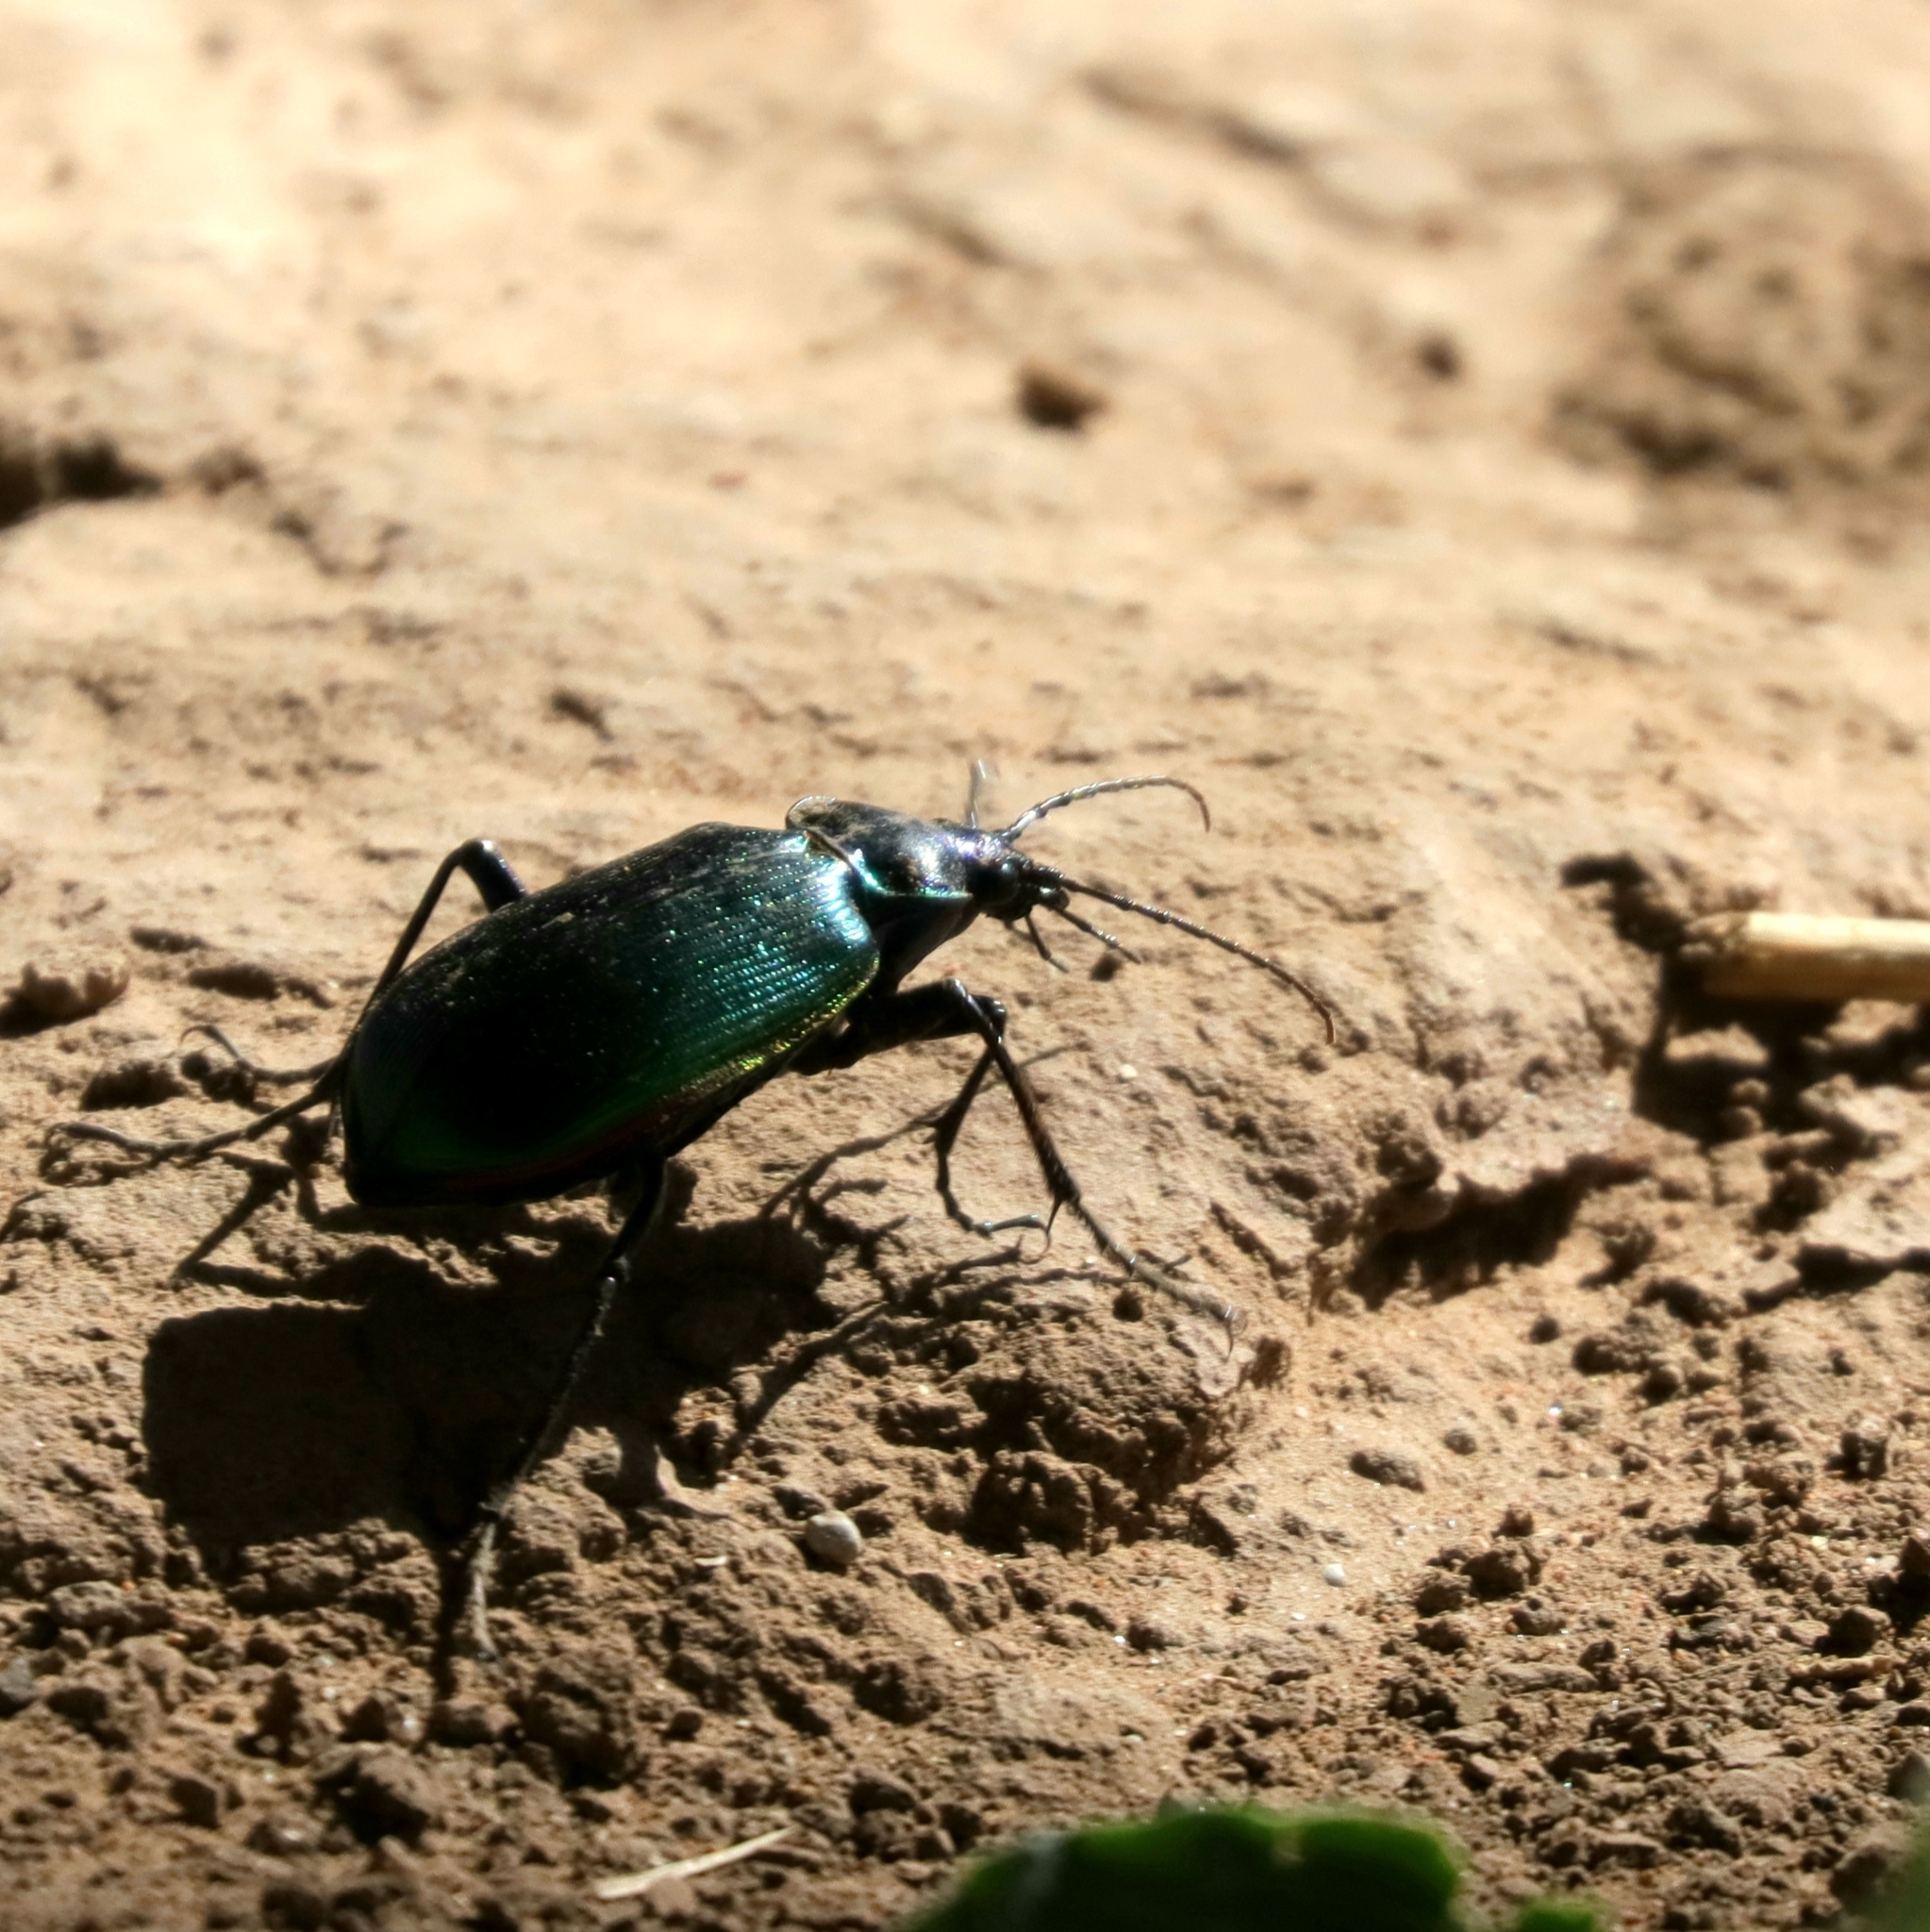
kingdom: Animalia
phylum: Arthropoda
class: Insecta
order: Coleoptera
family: Carabidae
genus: Calosoma
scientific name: Calosoma scrutator
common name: Fiery searcher beetle
